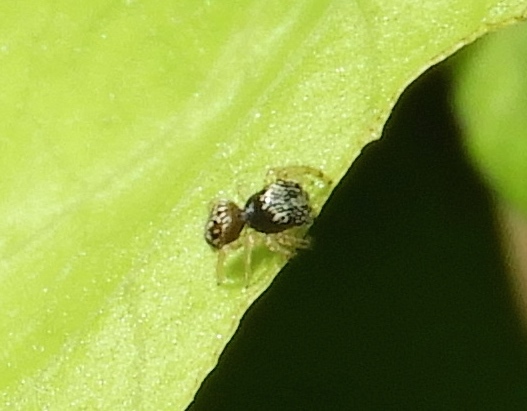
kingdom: Animalia
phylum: Arthropoda
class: Arachnida
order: Araneae
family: Salticidae
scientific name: Salticidae
